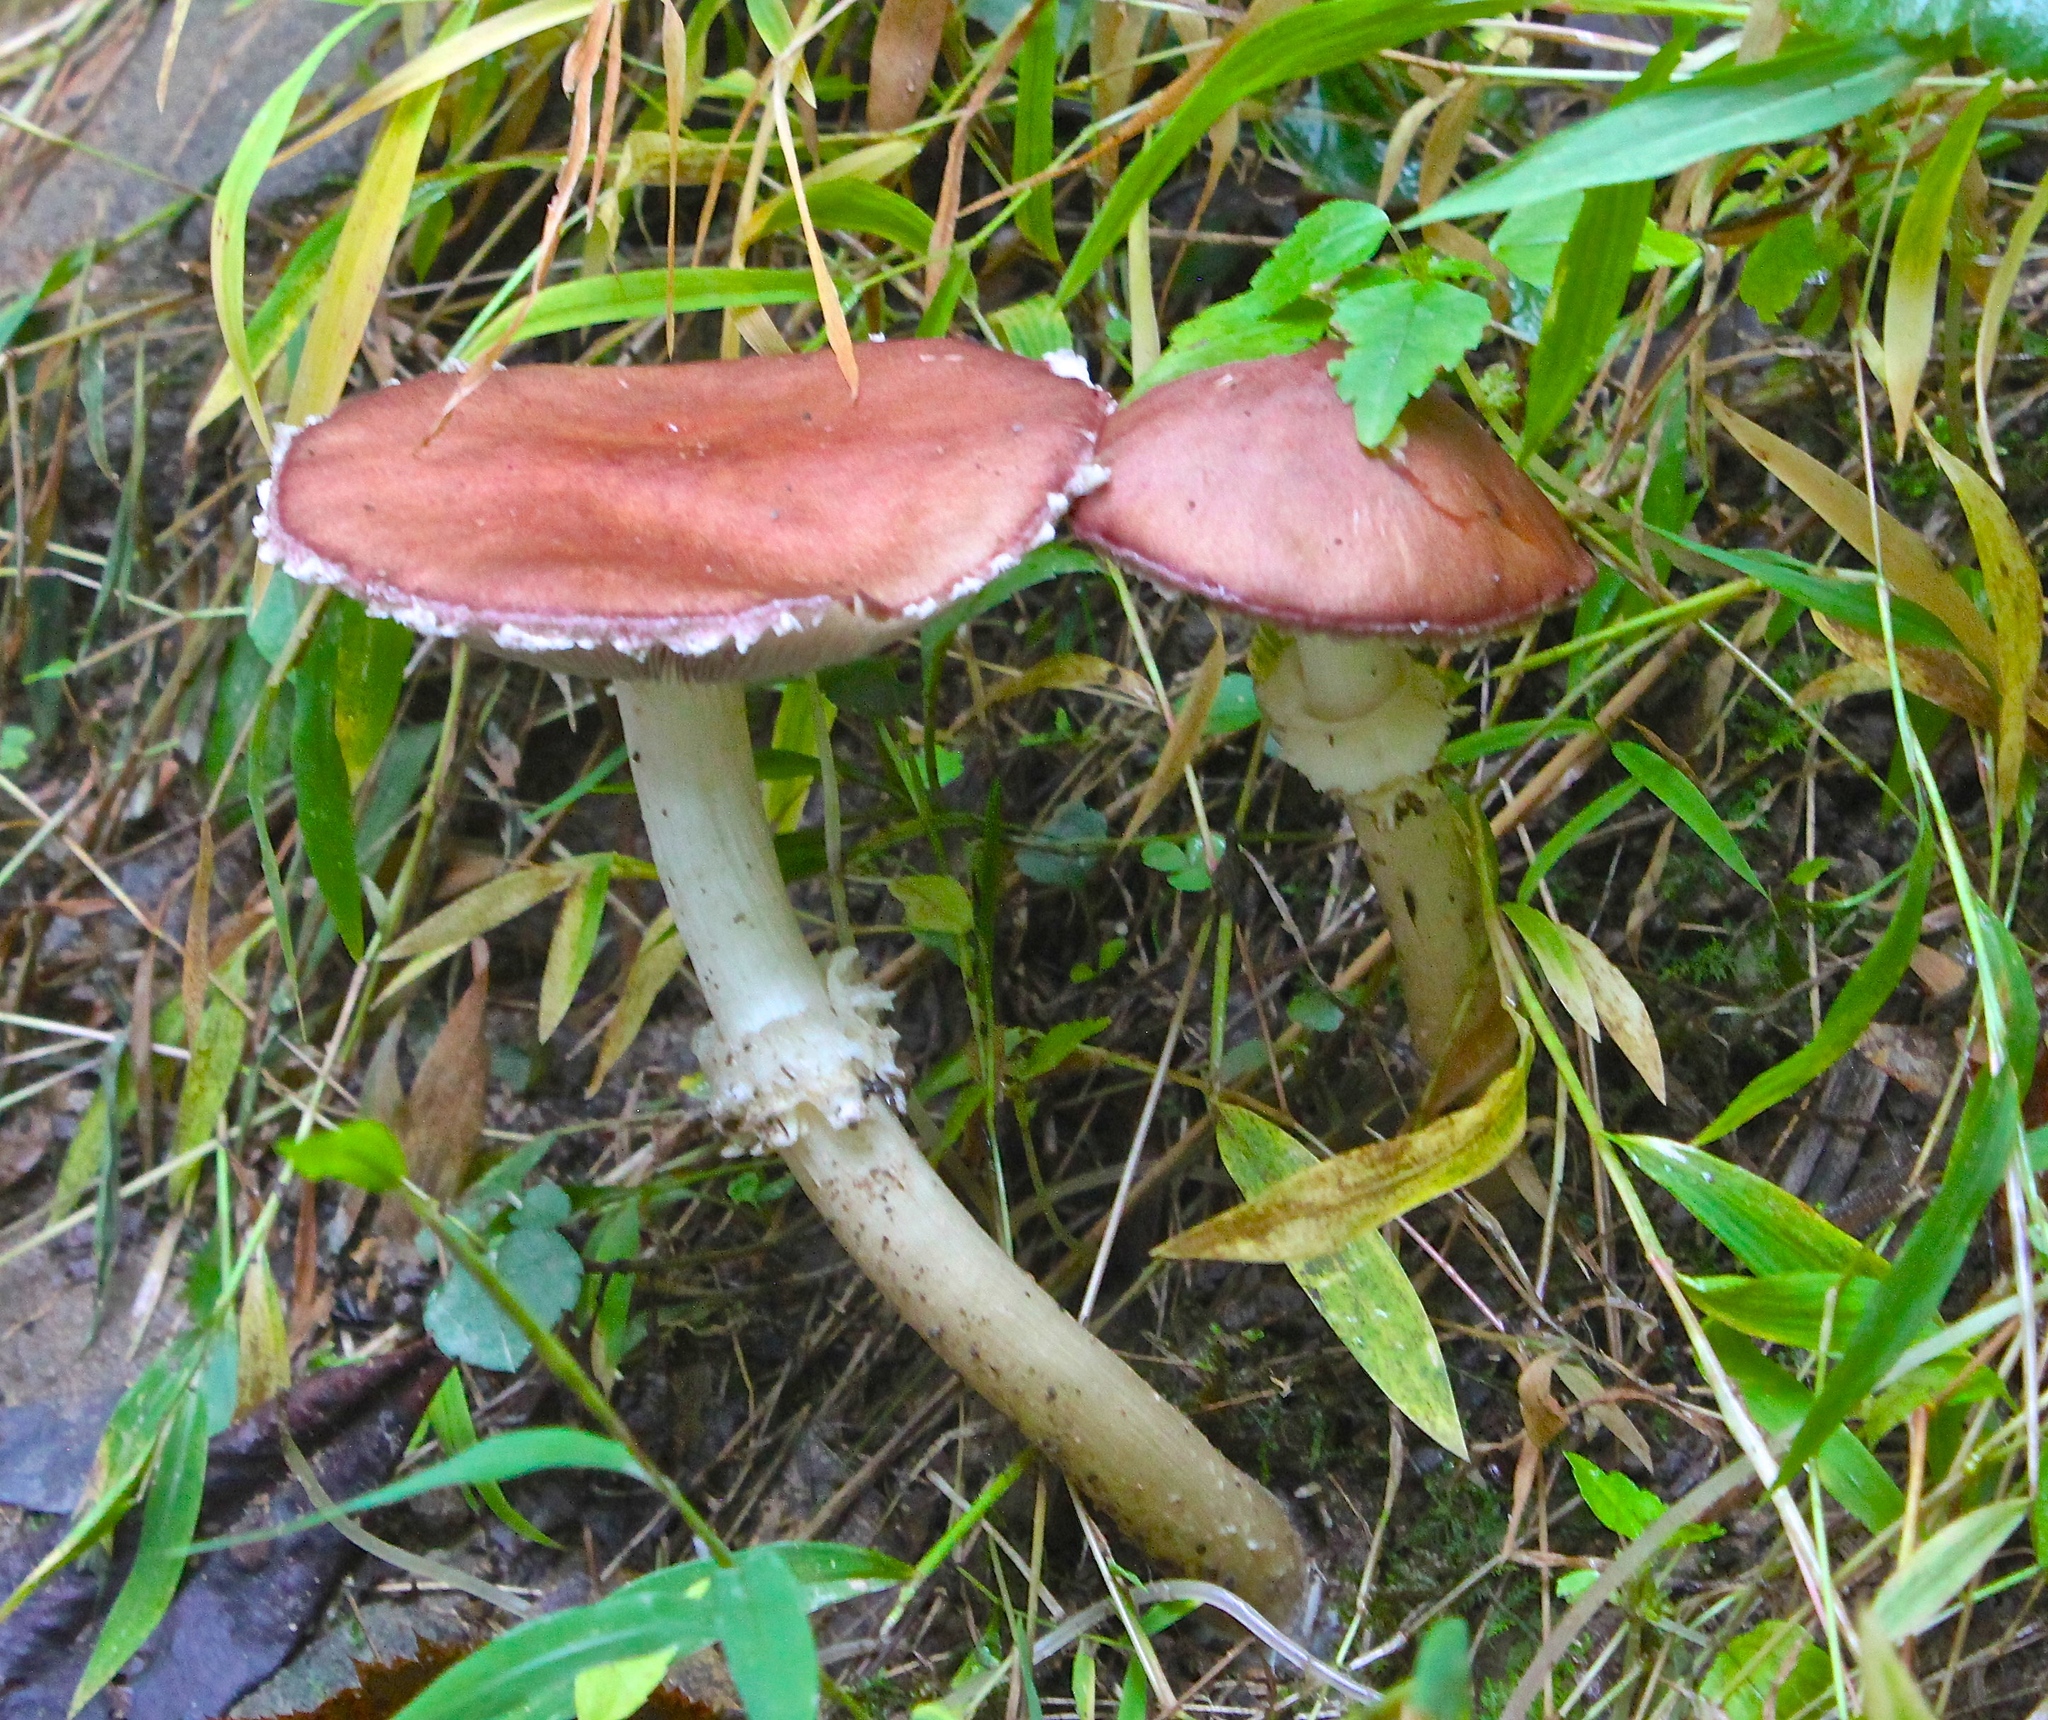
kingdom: Fungi
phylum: Basidiomycota
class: Agaricomycetes
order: Agaricales
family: Strophariaceae
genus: Stropharia
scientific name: Stropharia rugosoannulata
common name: Wine roundhead
